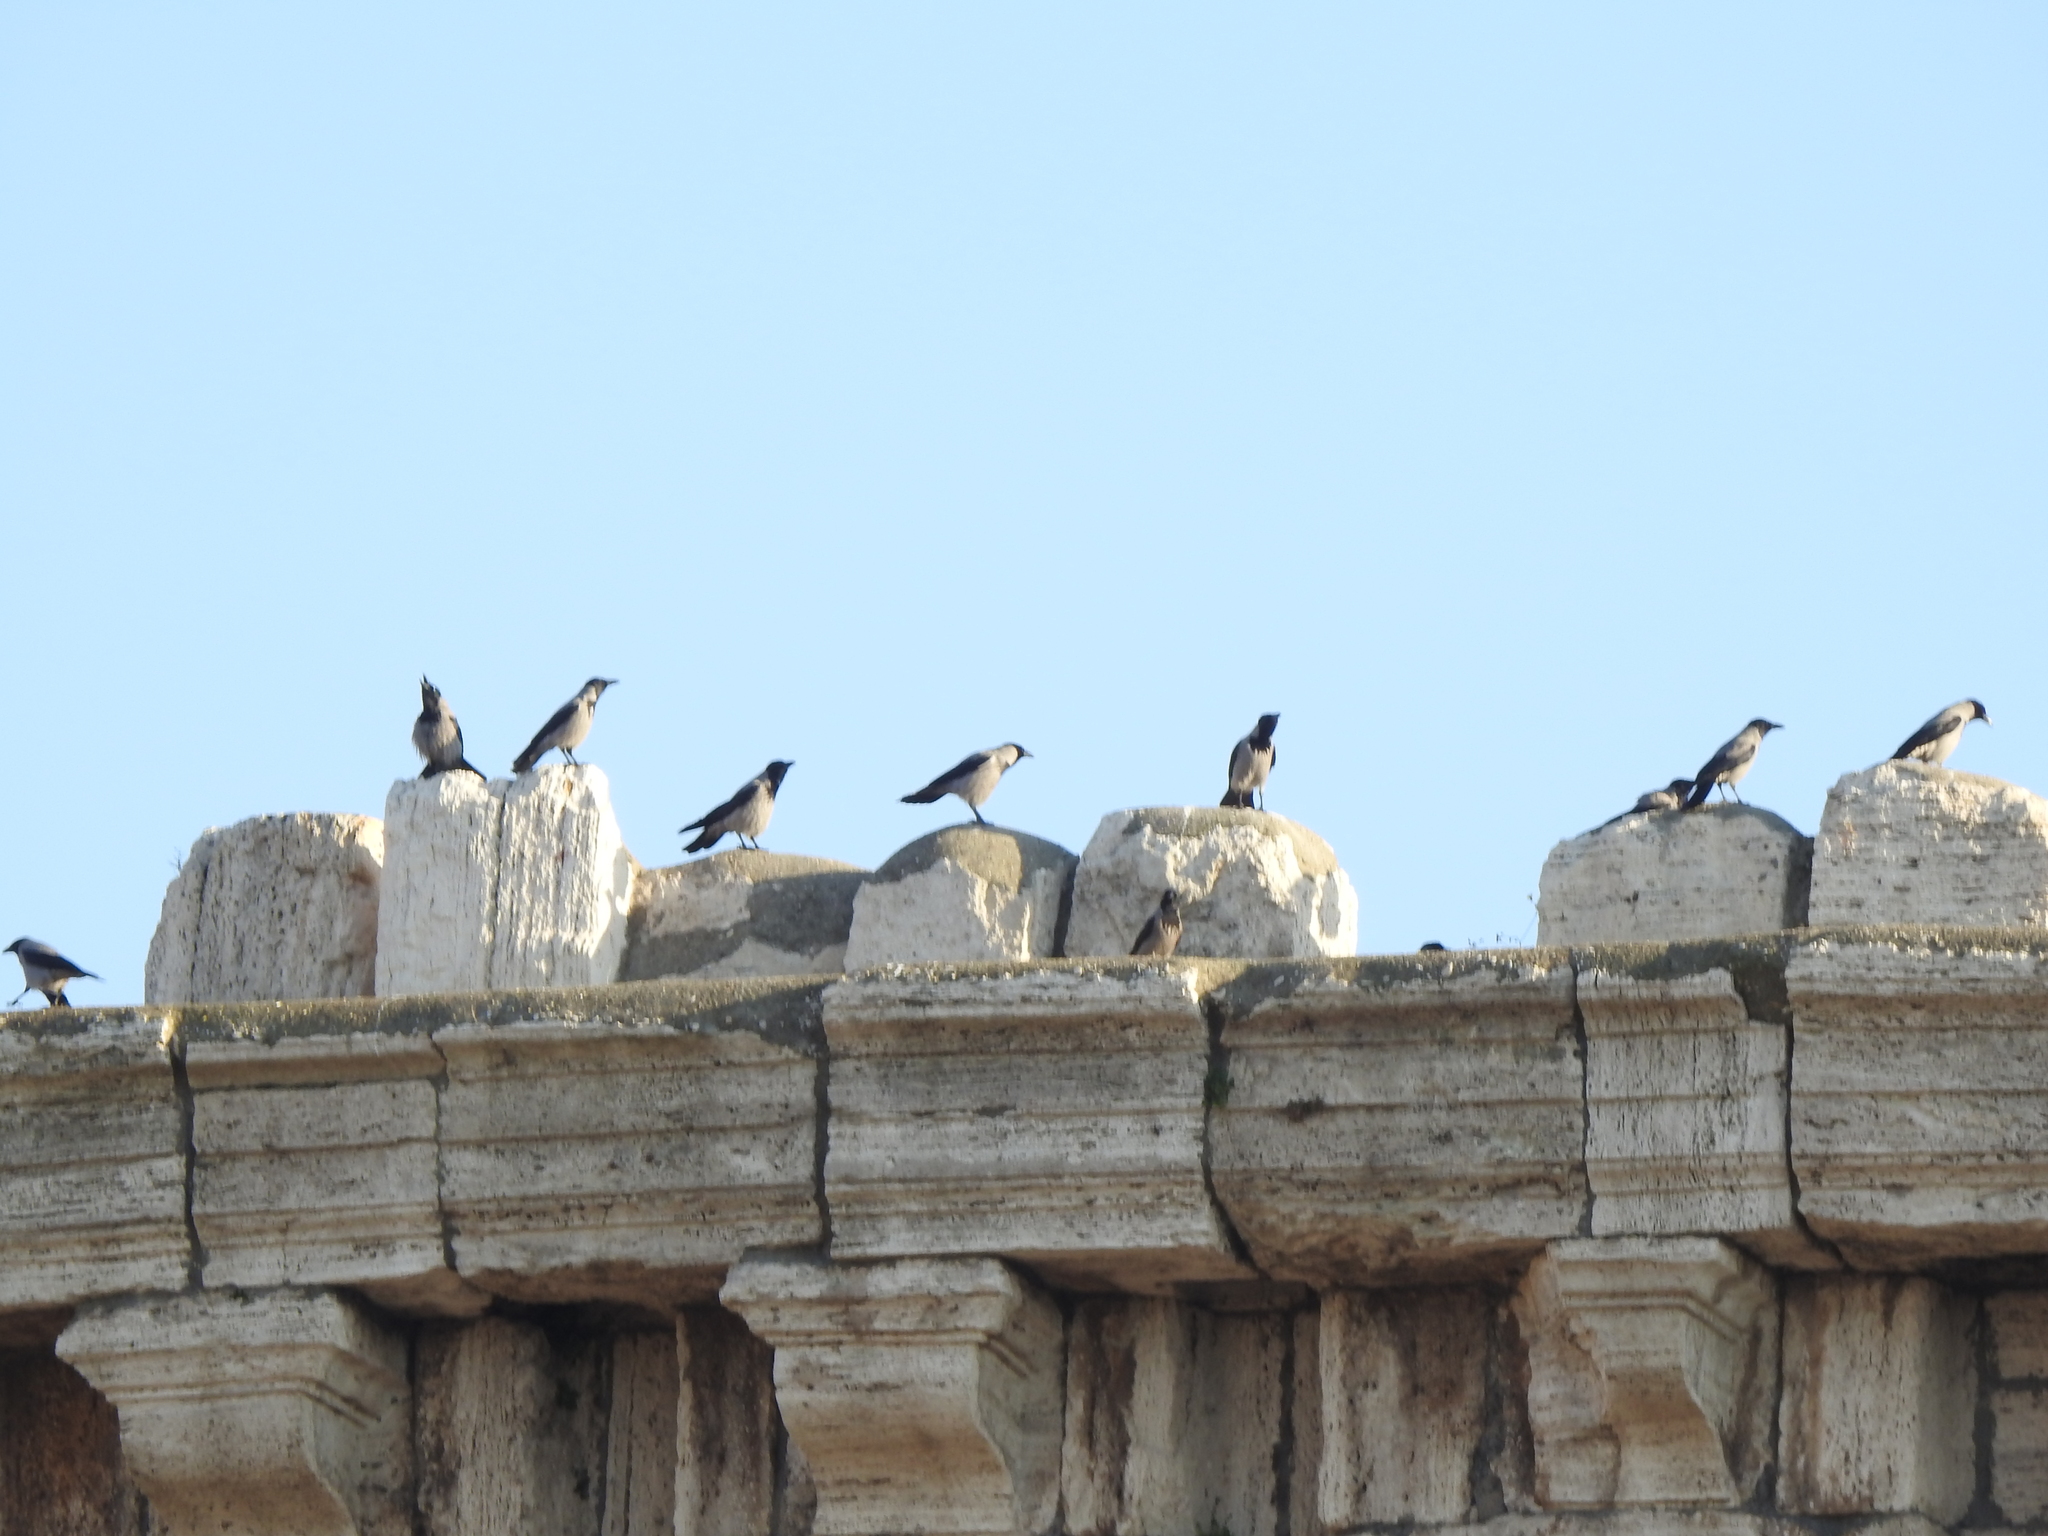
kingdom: Animalia
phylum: Chordata
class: Aves
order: Passeriformes
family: Corvidae
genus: Corvus
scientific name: Corvus cornix
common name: Hooded crow
